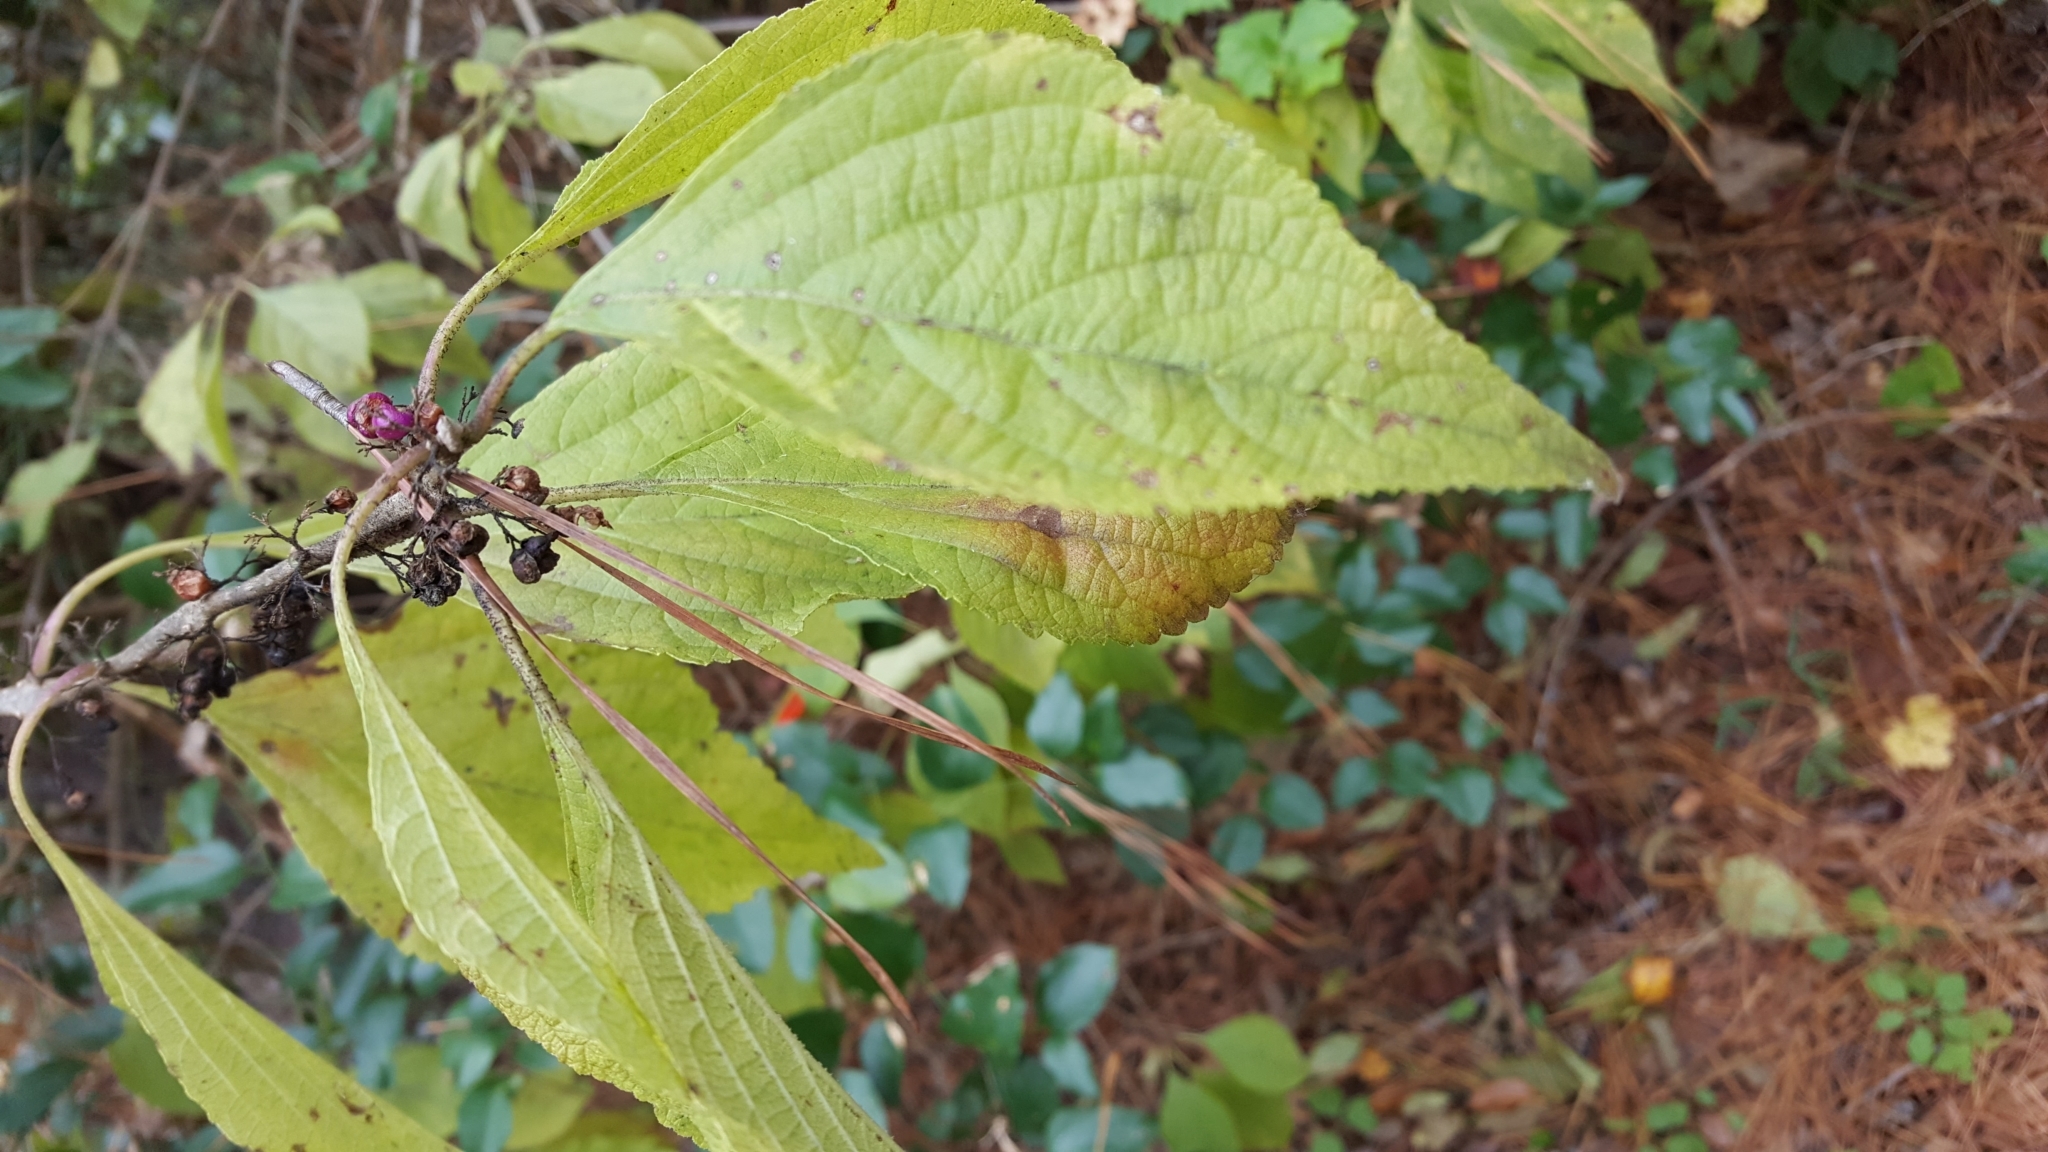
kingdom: Plantae
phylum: Tracheophyta
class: Magnoliopsida
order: Lamiales
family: Lamiaceae
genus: Callicarpa
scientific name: Callicarpa americana
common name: American beautyberry
